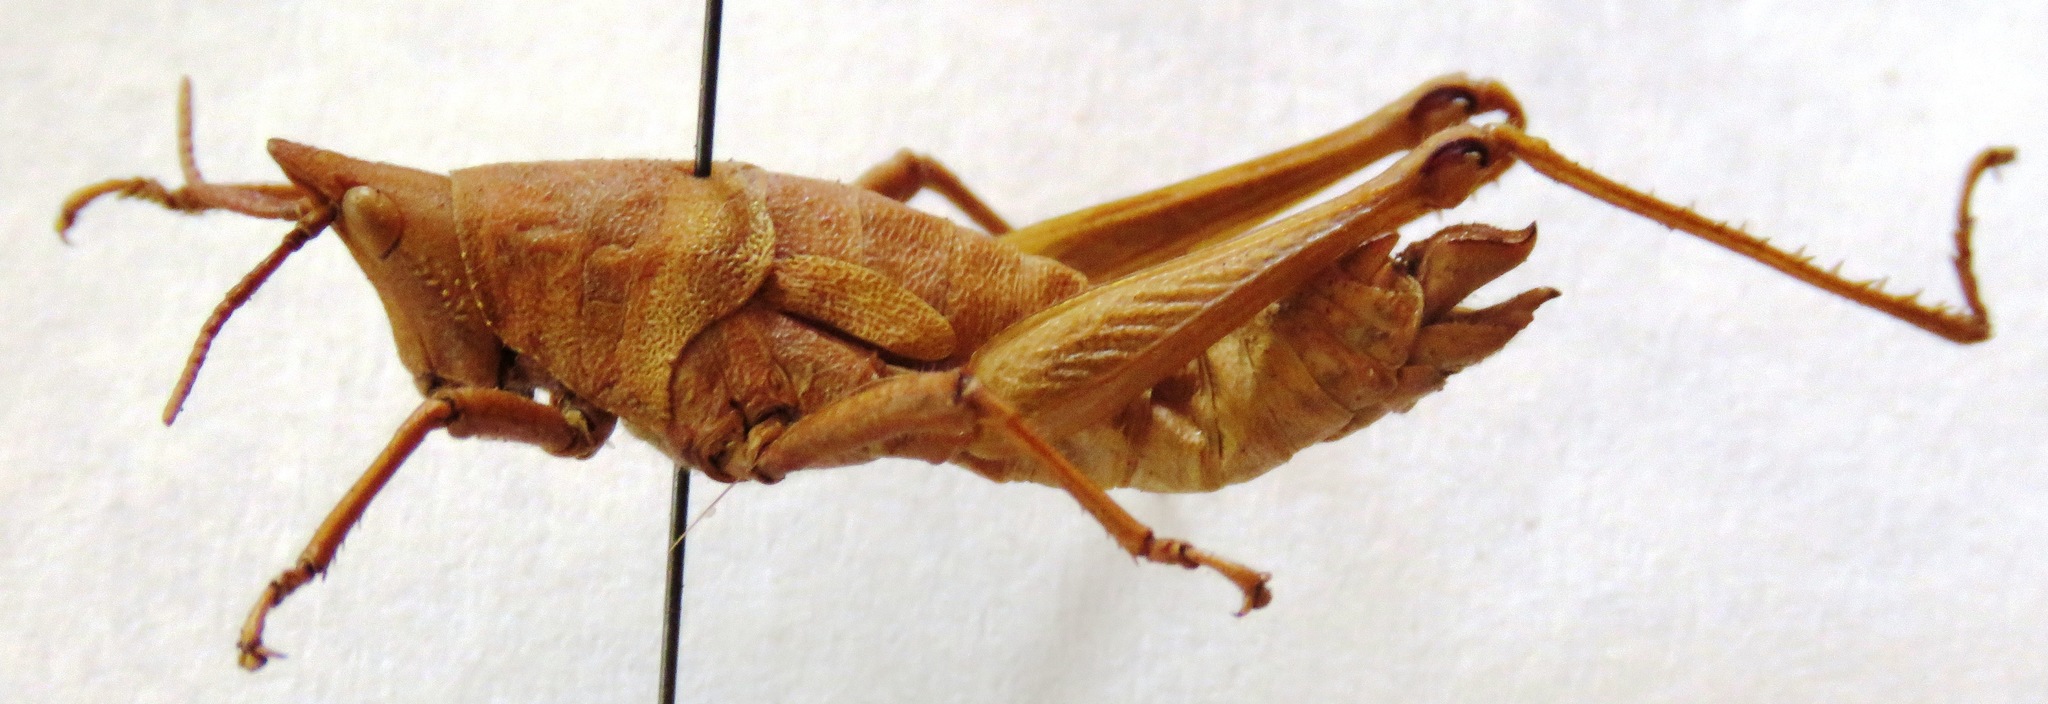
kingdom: Animalia
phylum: Arthropoda
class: Insecta
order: Orthoptera
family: Pyrgomorphidae
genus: Prosphena
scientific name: Prosphena scudderi
